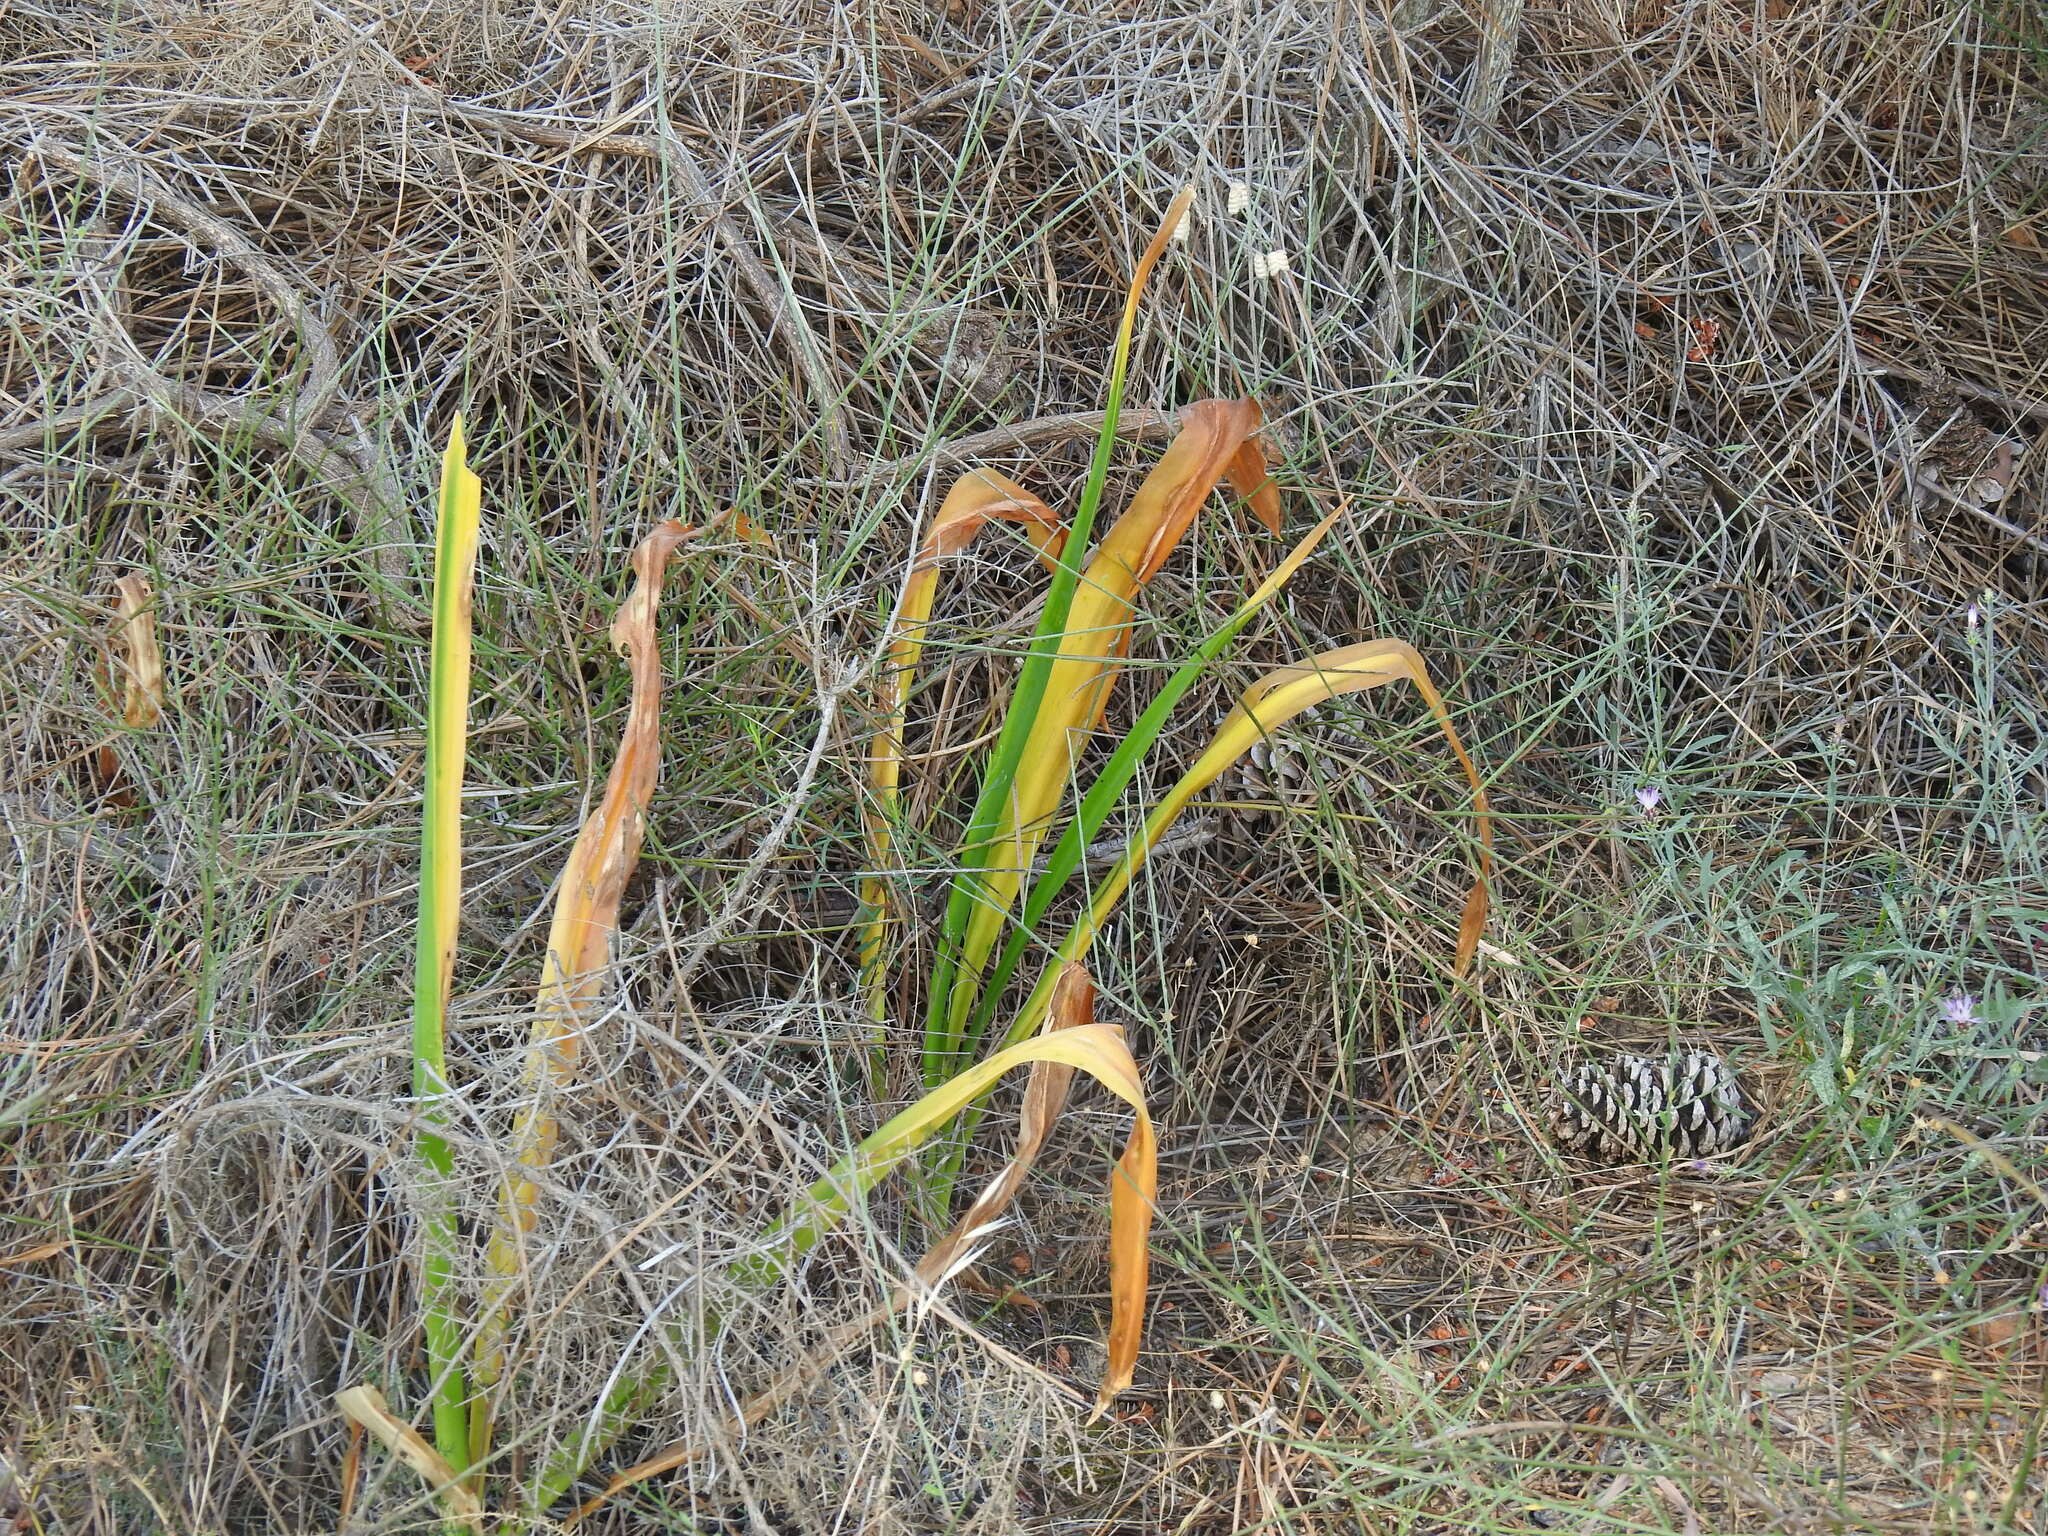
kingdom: Plantae
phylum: Tracheophyta
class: Liliopsida
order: Asparagales
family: Asparagaceae
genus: Drimia
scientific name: Drimia maritima
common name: Maritime squill
